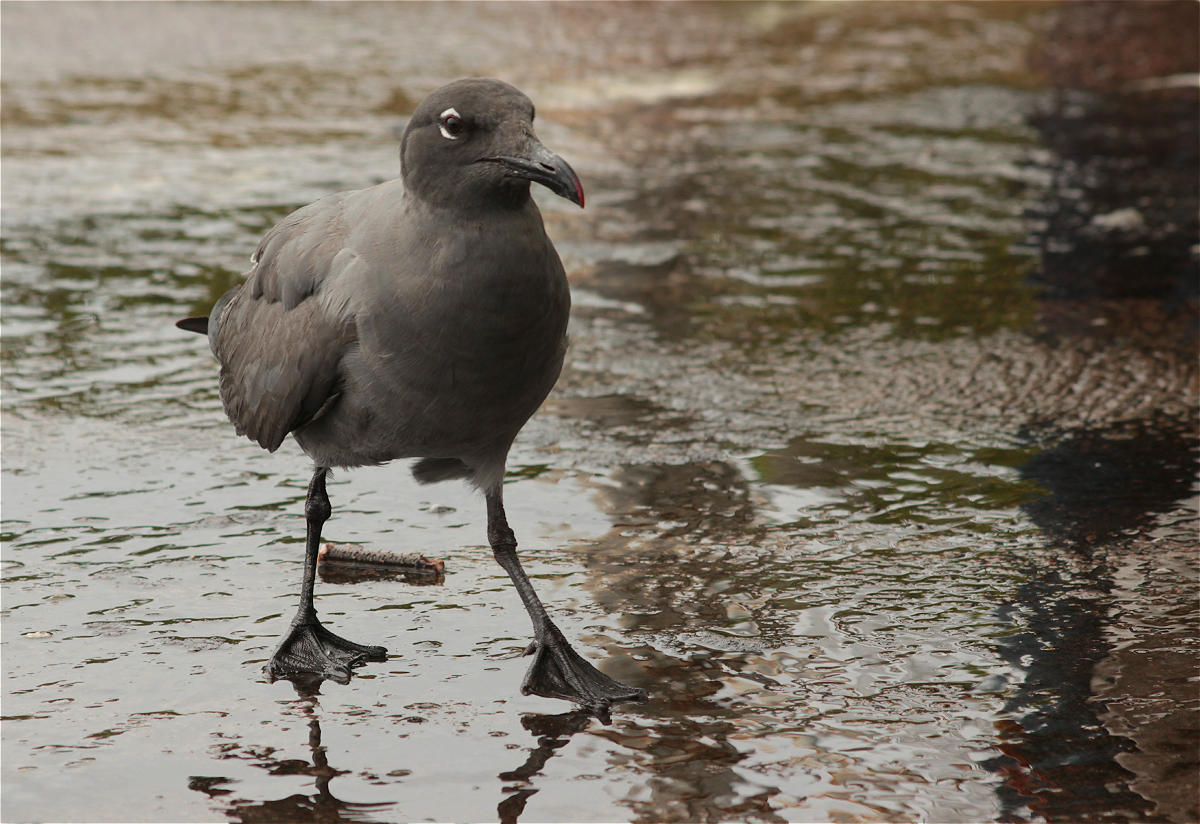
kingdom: Animalia
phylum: Chordata
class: Aves
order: Charadriiformes
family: Laridae
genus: Leucophaeus
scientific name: Leucophaeus fuliginosus
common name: Lava gull
